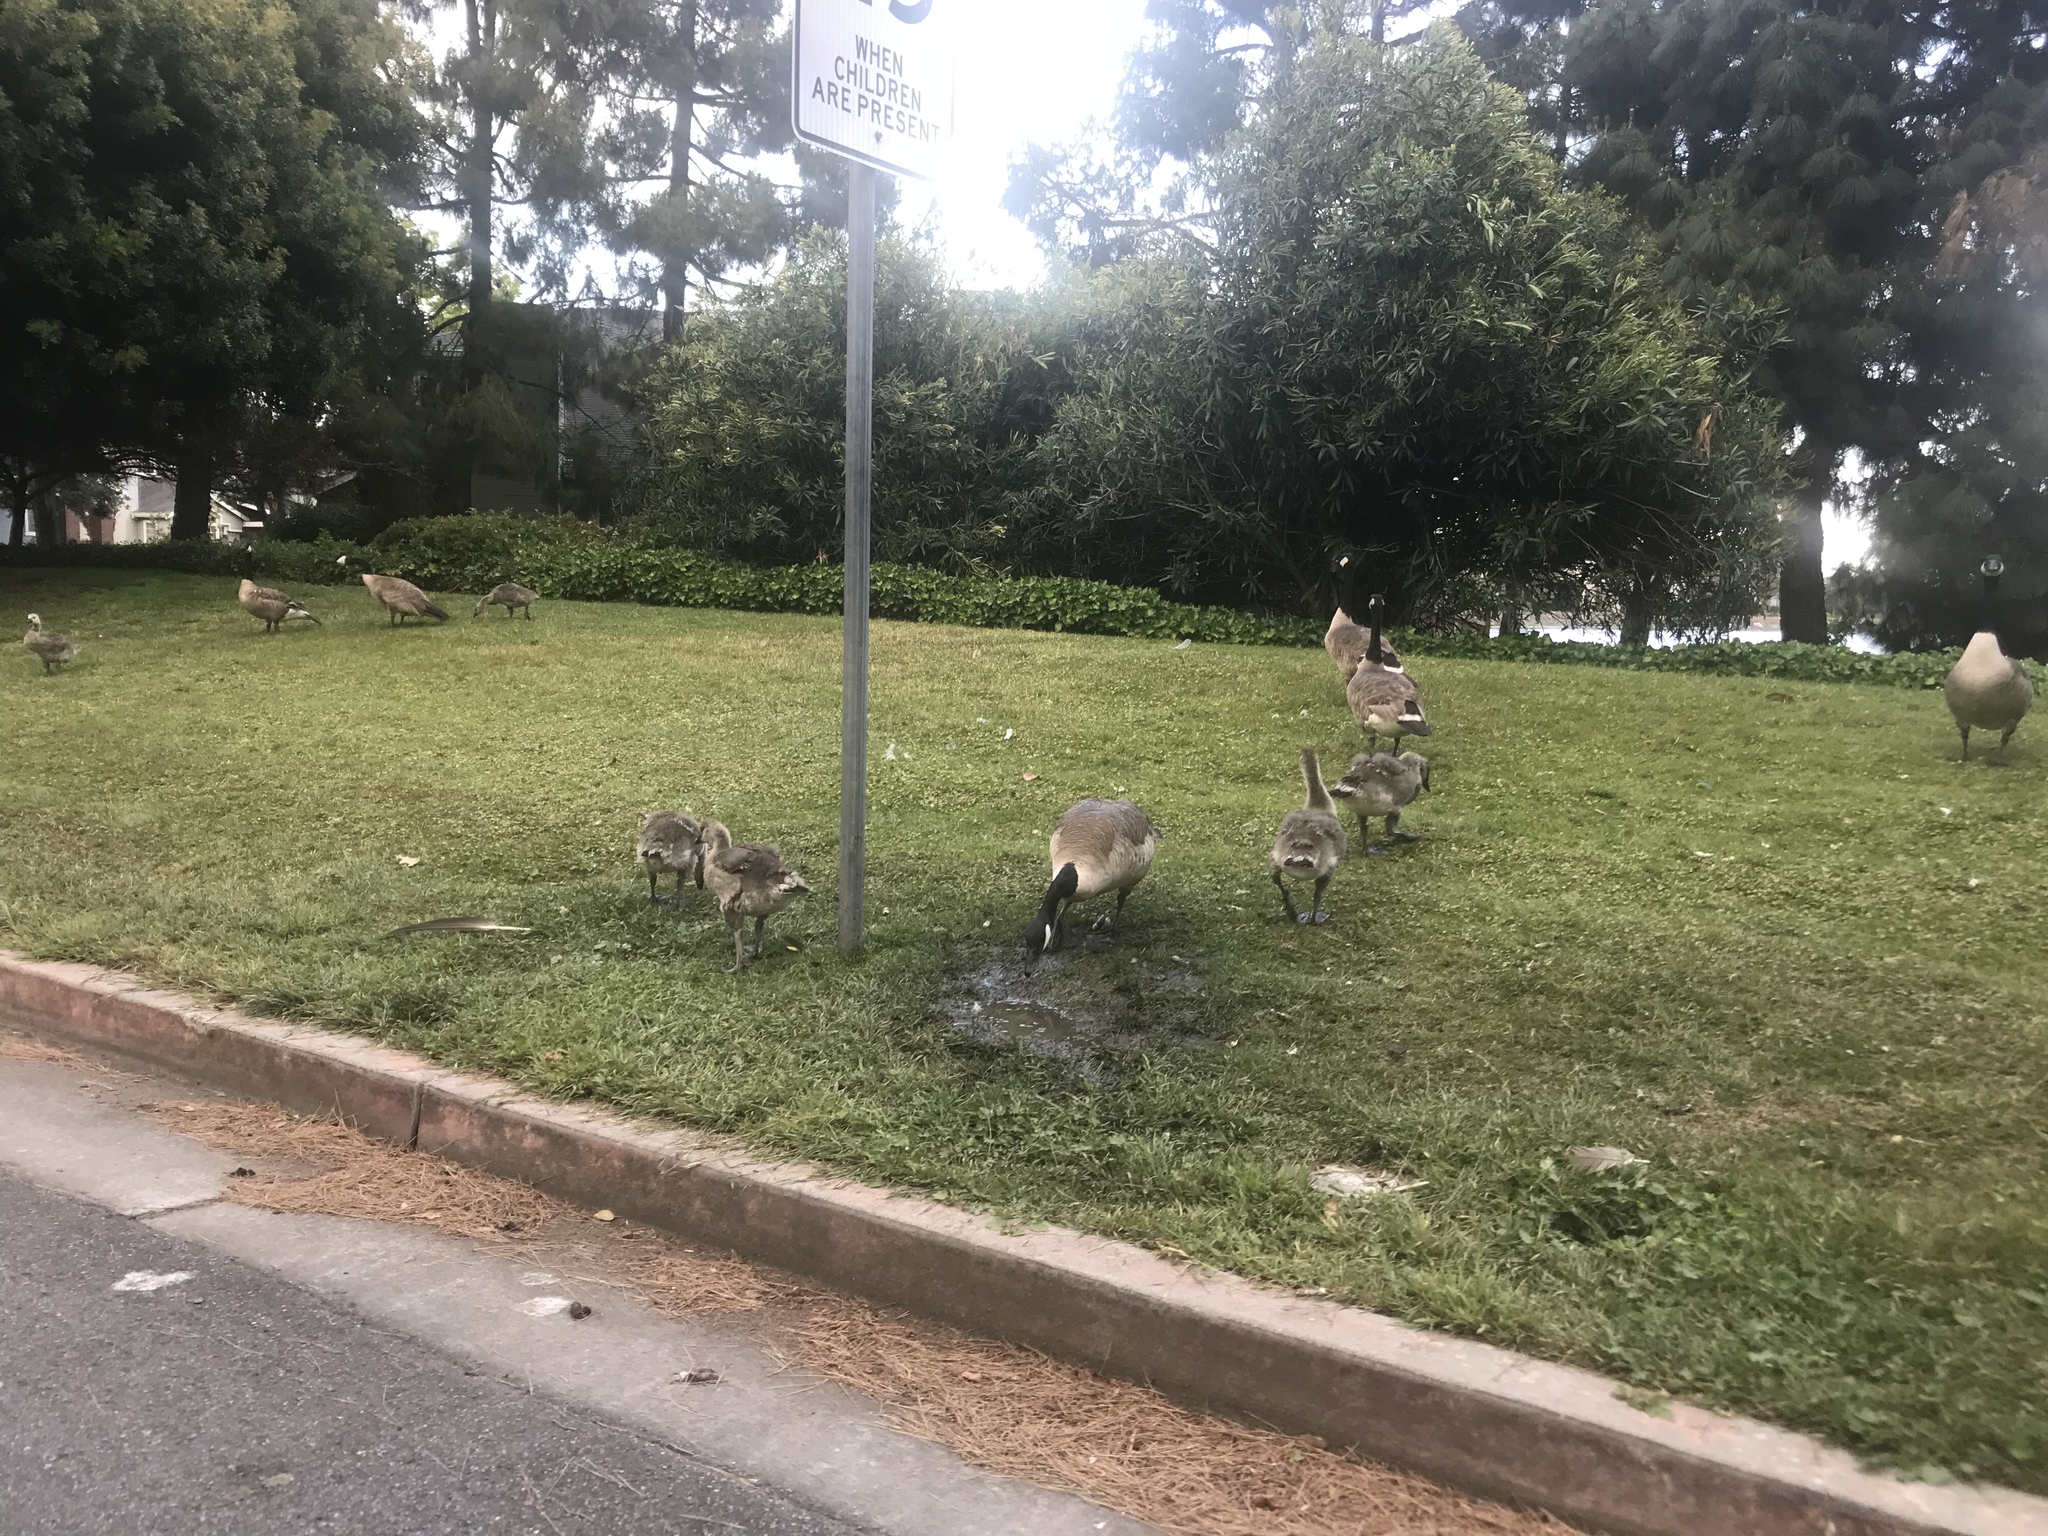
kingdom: Animalia
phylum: Chordata
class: Aves
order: Anseriformes
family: Anatidae
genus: Branta
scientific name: Branta canadensis
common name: Canada goose
